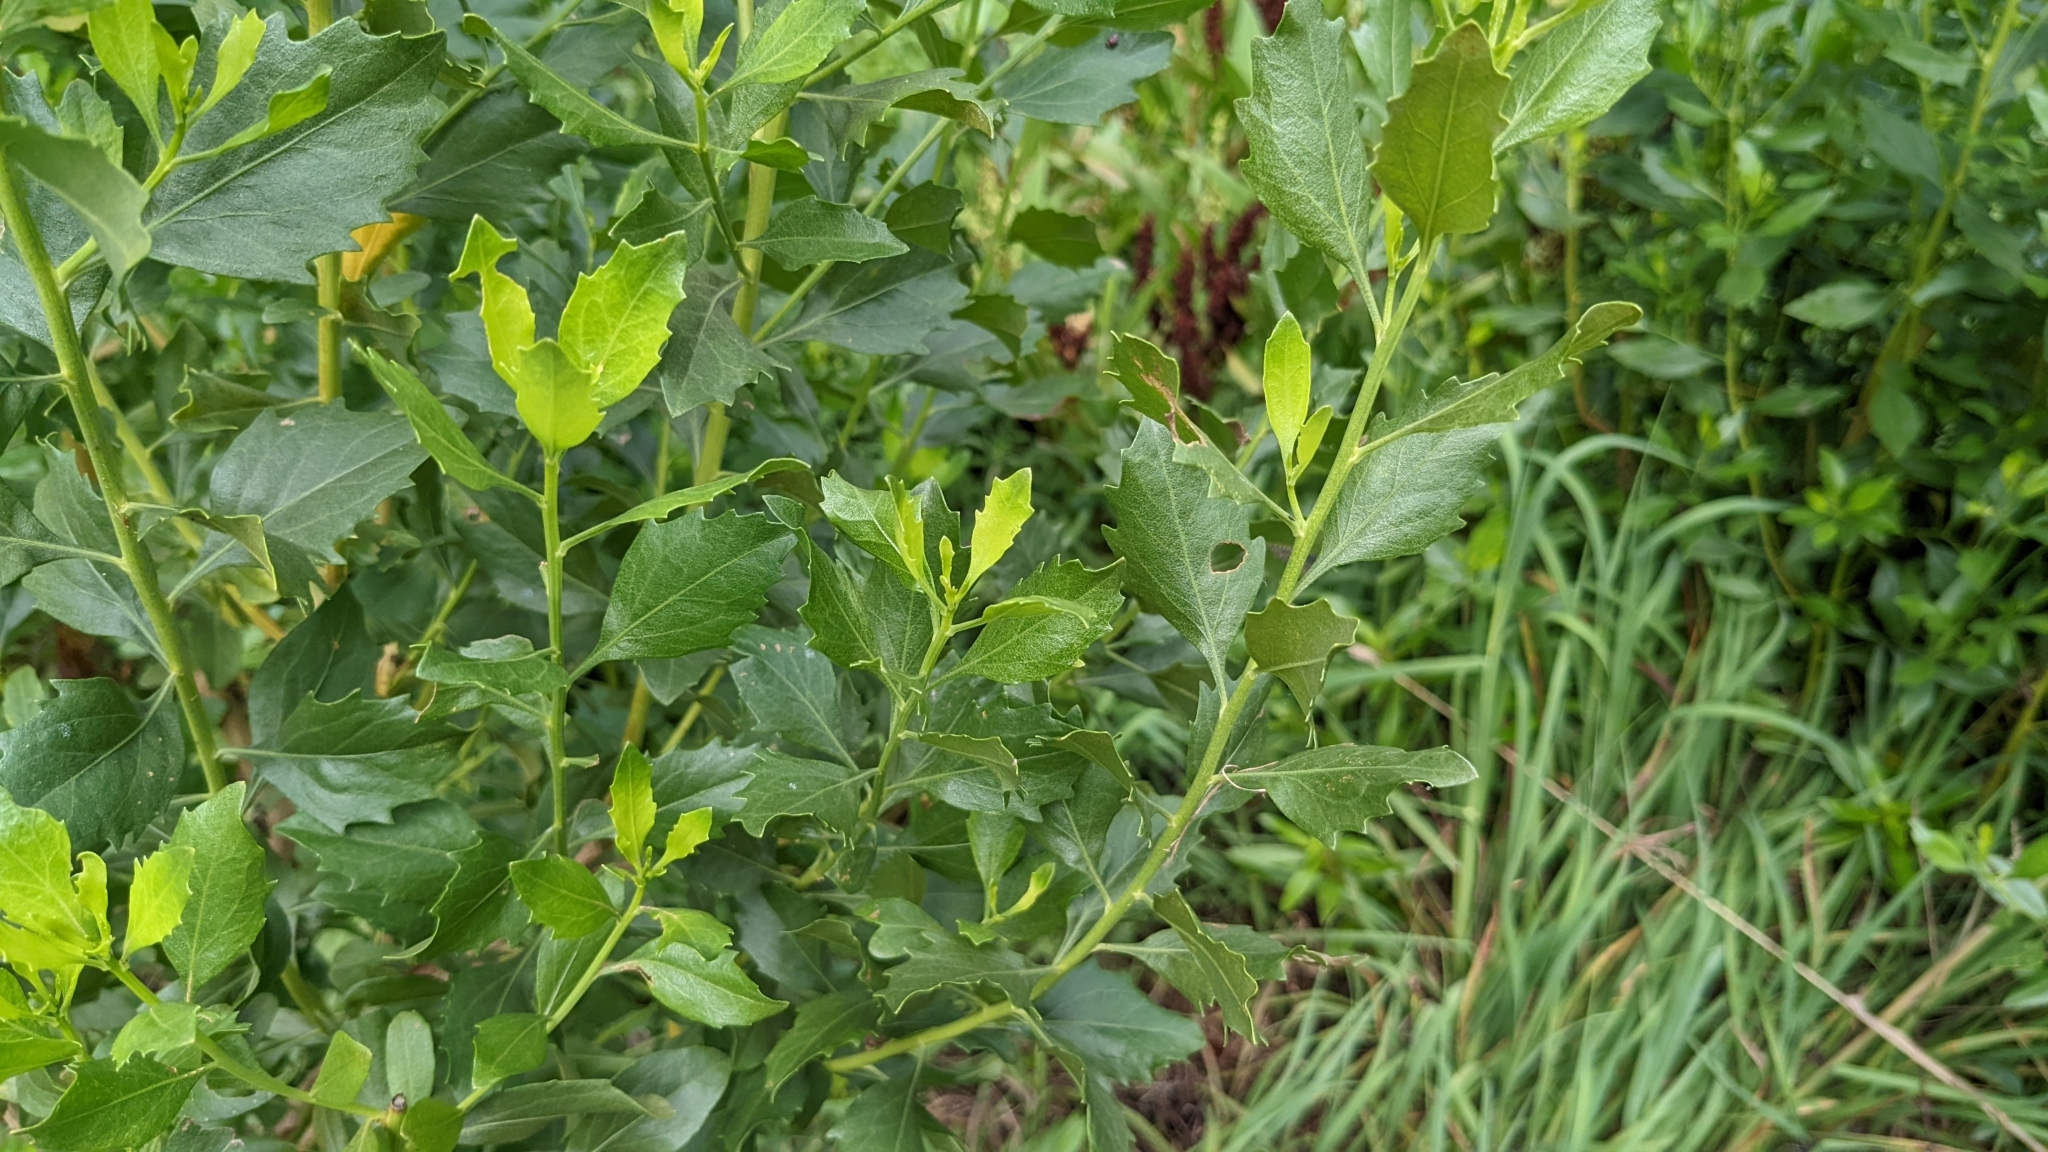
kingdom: Plantae
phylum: Tracheophyta
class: Magnoliopsida
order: Asterales
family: Asteraceae
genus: Baccharis
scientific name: Baccharis halimifolia
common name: Eastern baccharis
